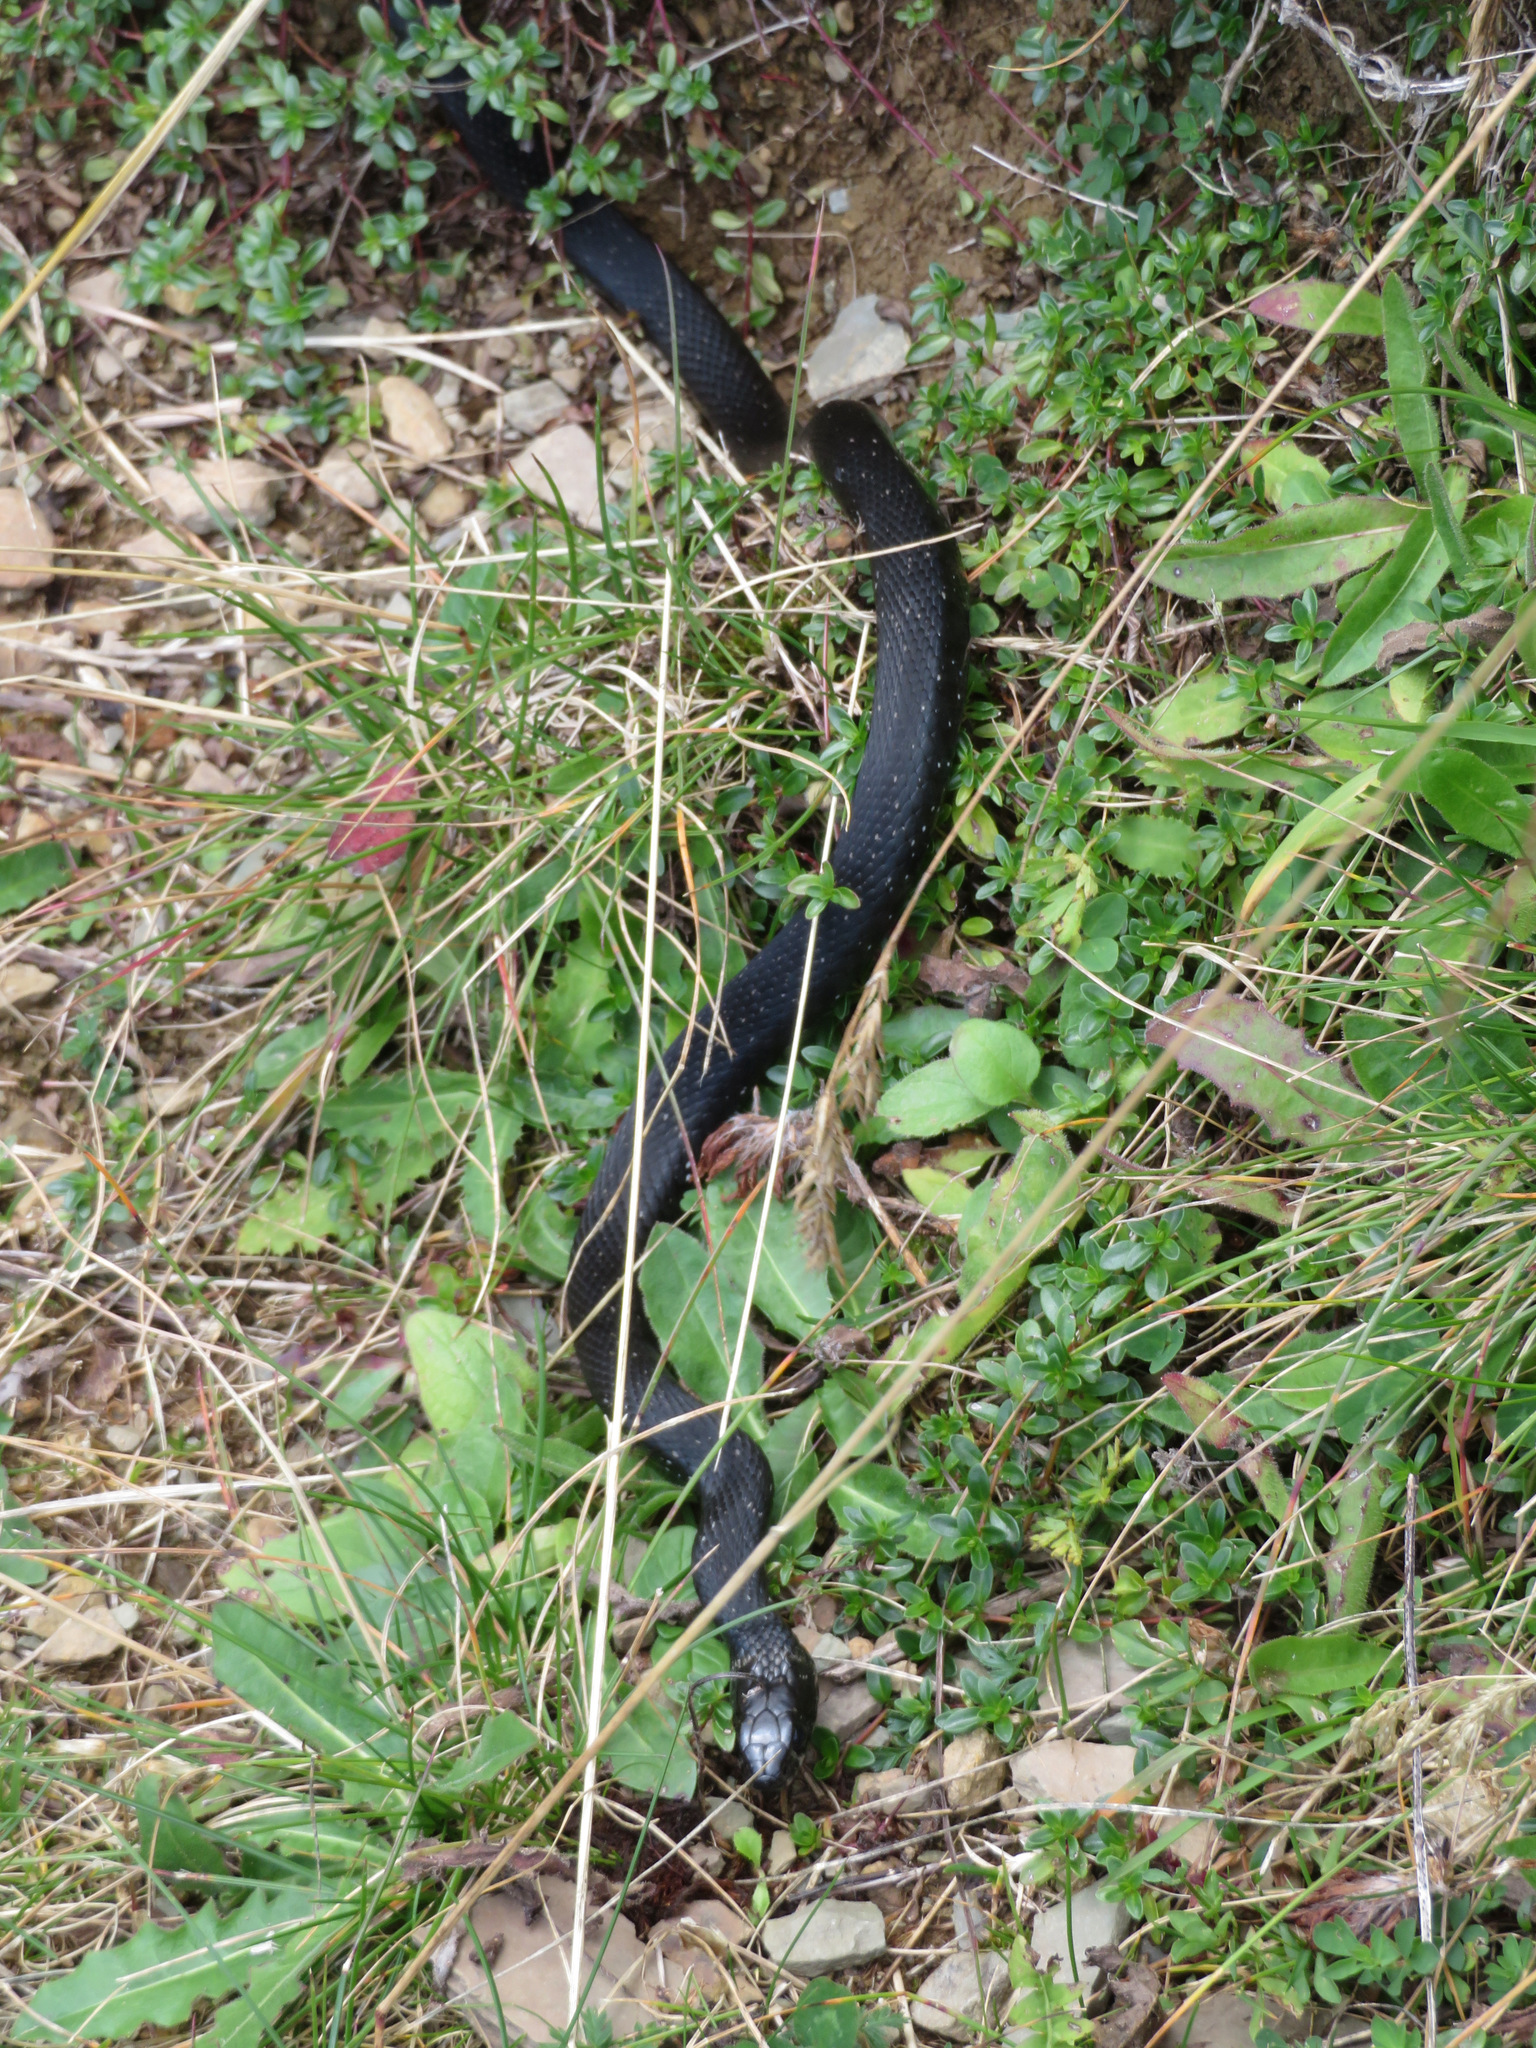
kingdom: Animalia
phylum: Chordata
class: Squamata
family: Colubridae
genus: Natrix
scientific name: Natrix helvetica
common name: Banded grass snake
